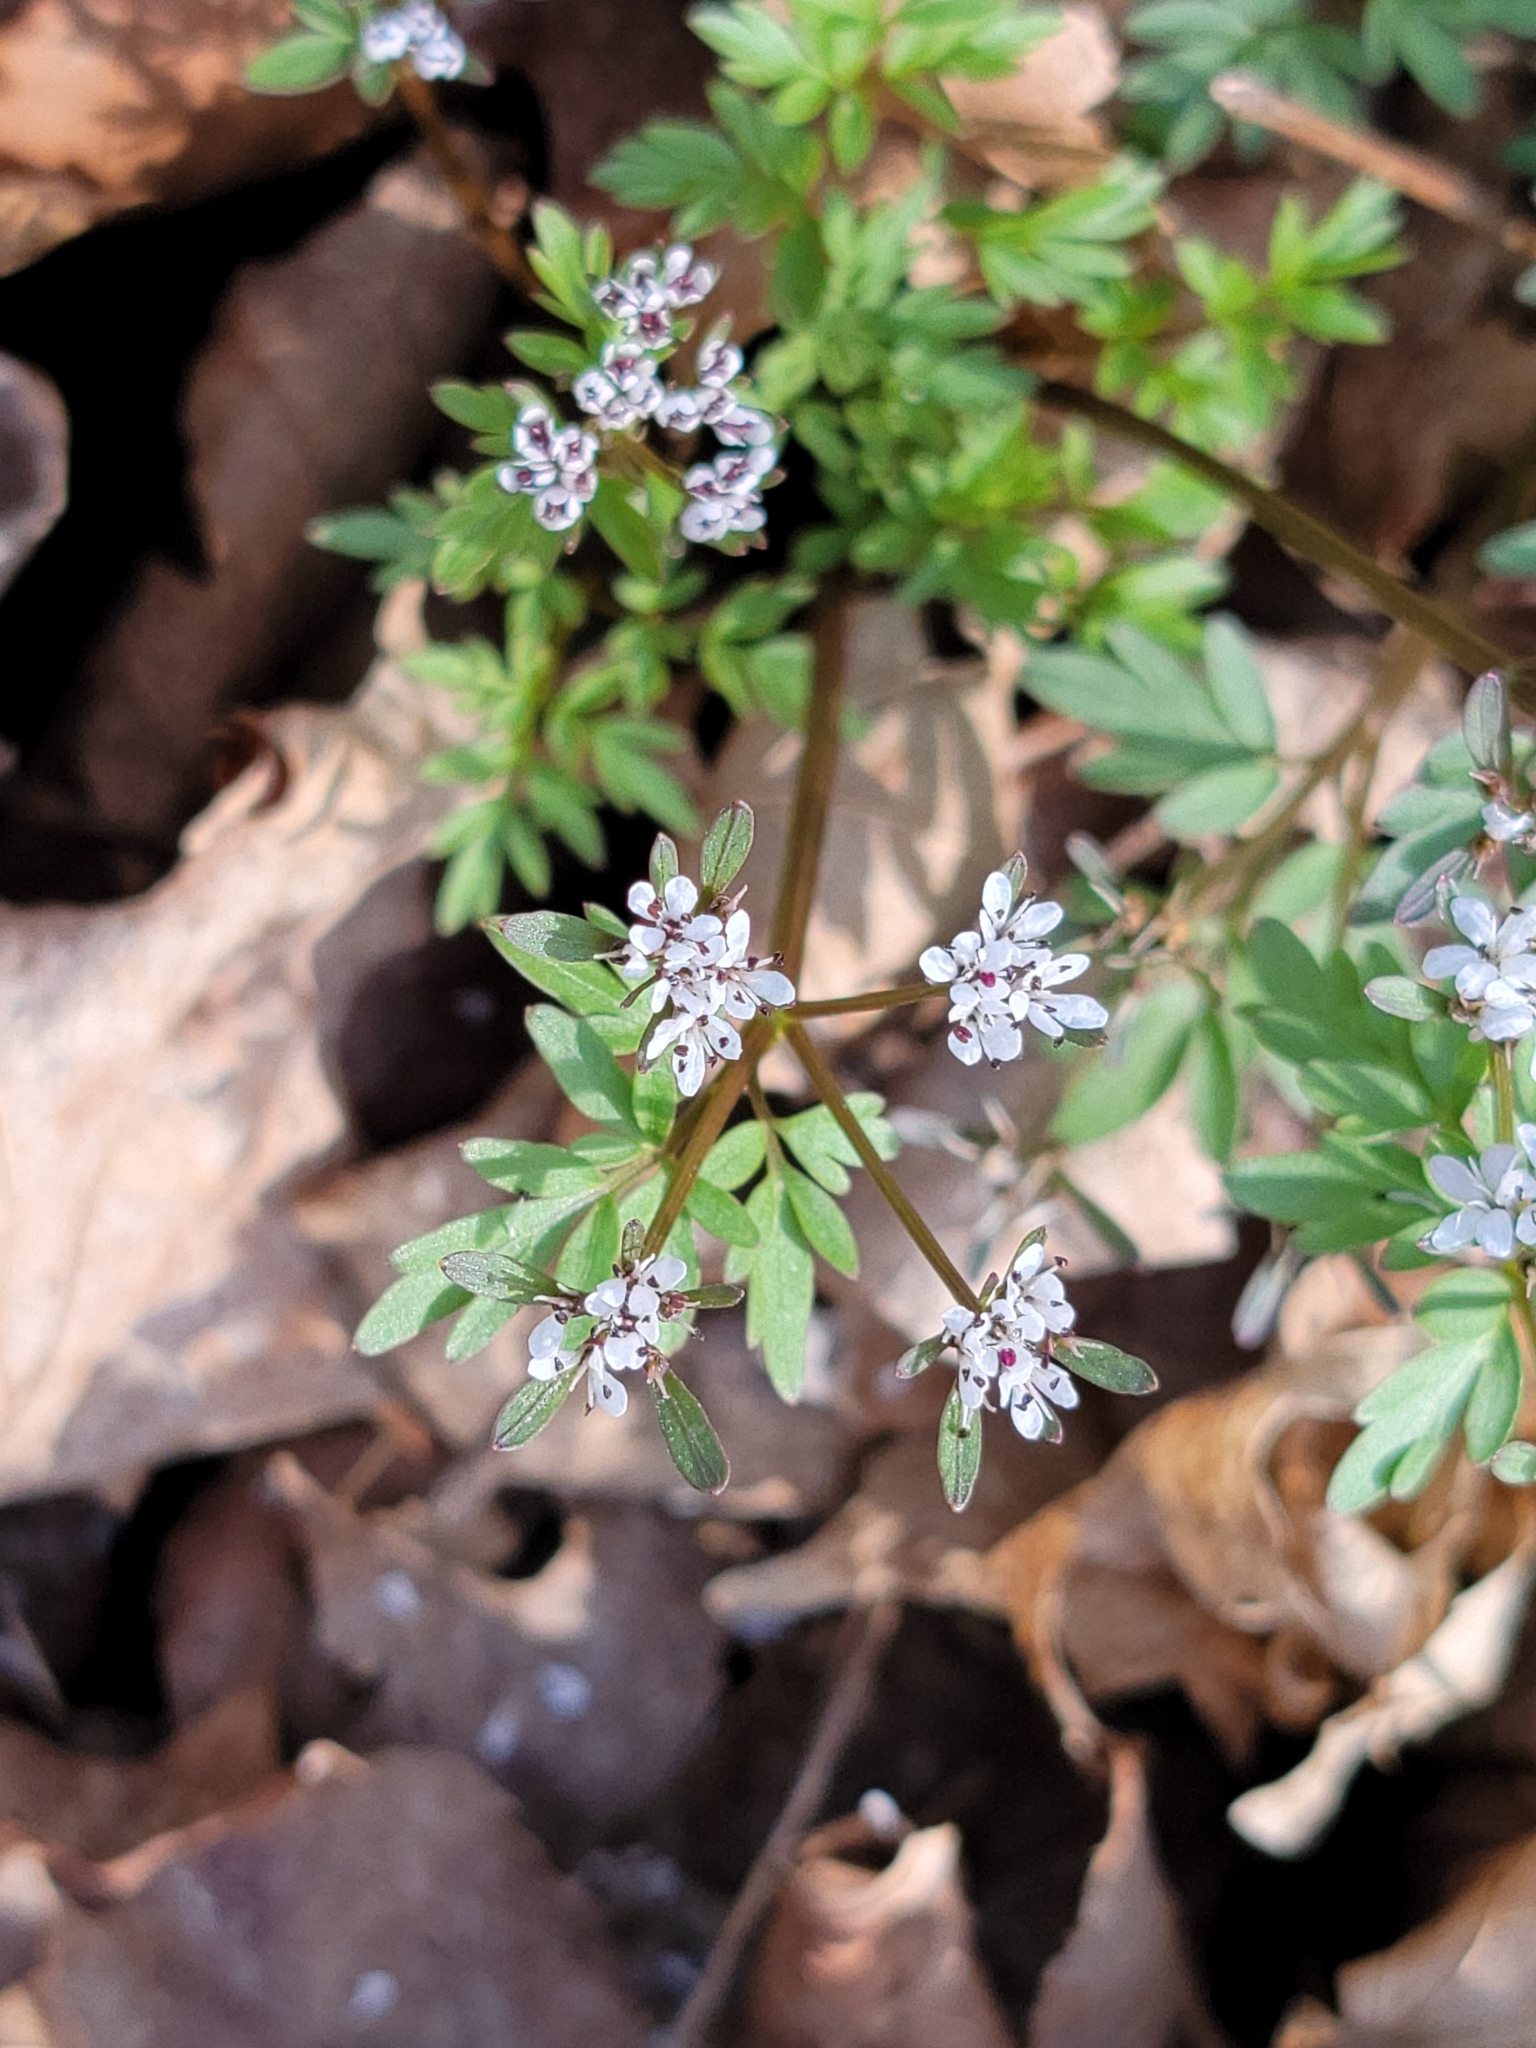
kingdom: Plantae
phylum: Tracheophyta
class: Magnoliopsida
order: Apiales
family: Apiaceae
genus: Erigenia
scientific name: Erigenia bulbosa
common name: Pepper-and-salt
